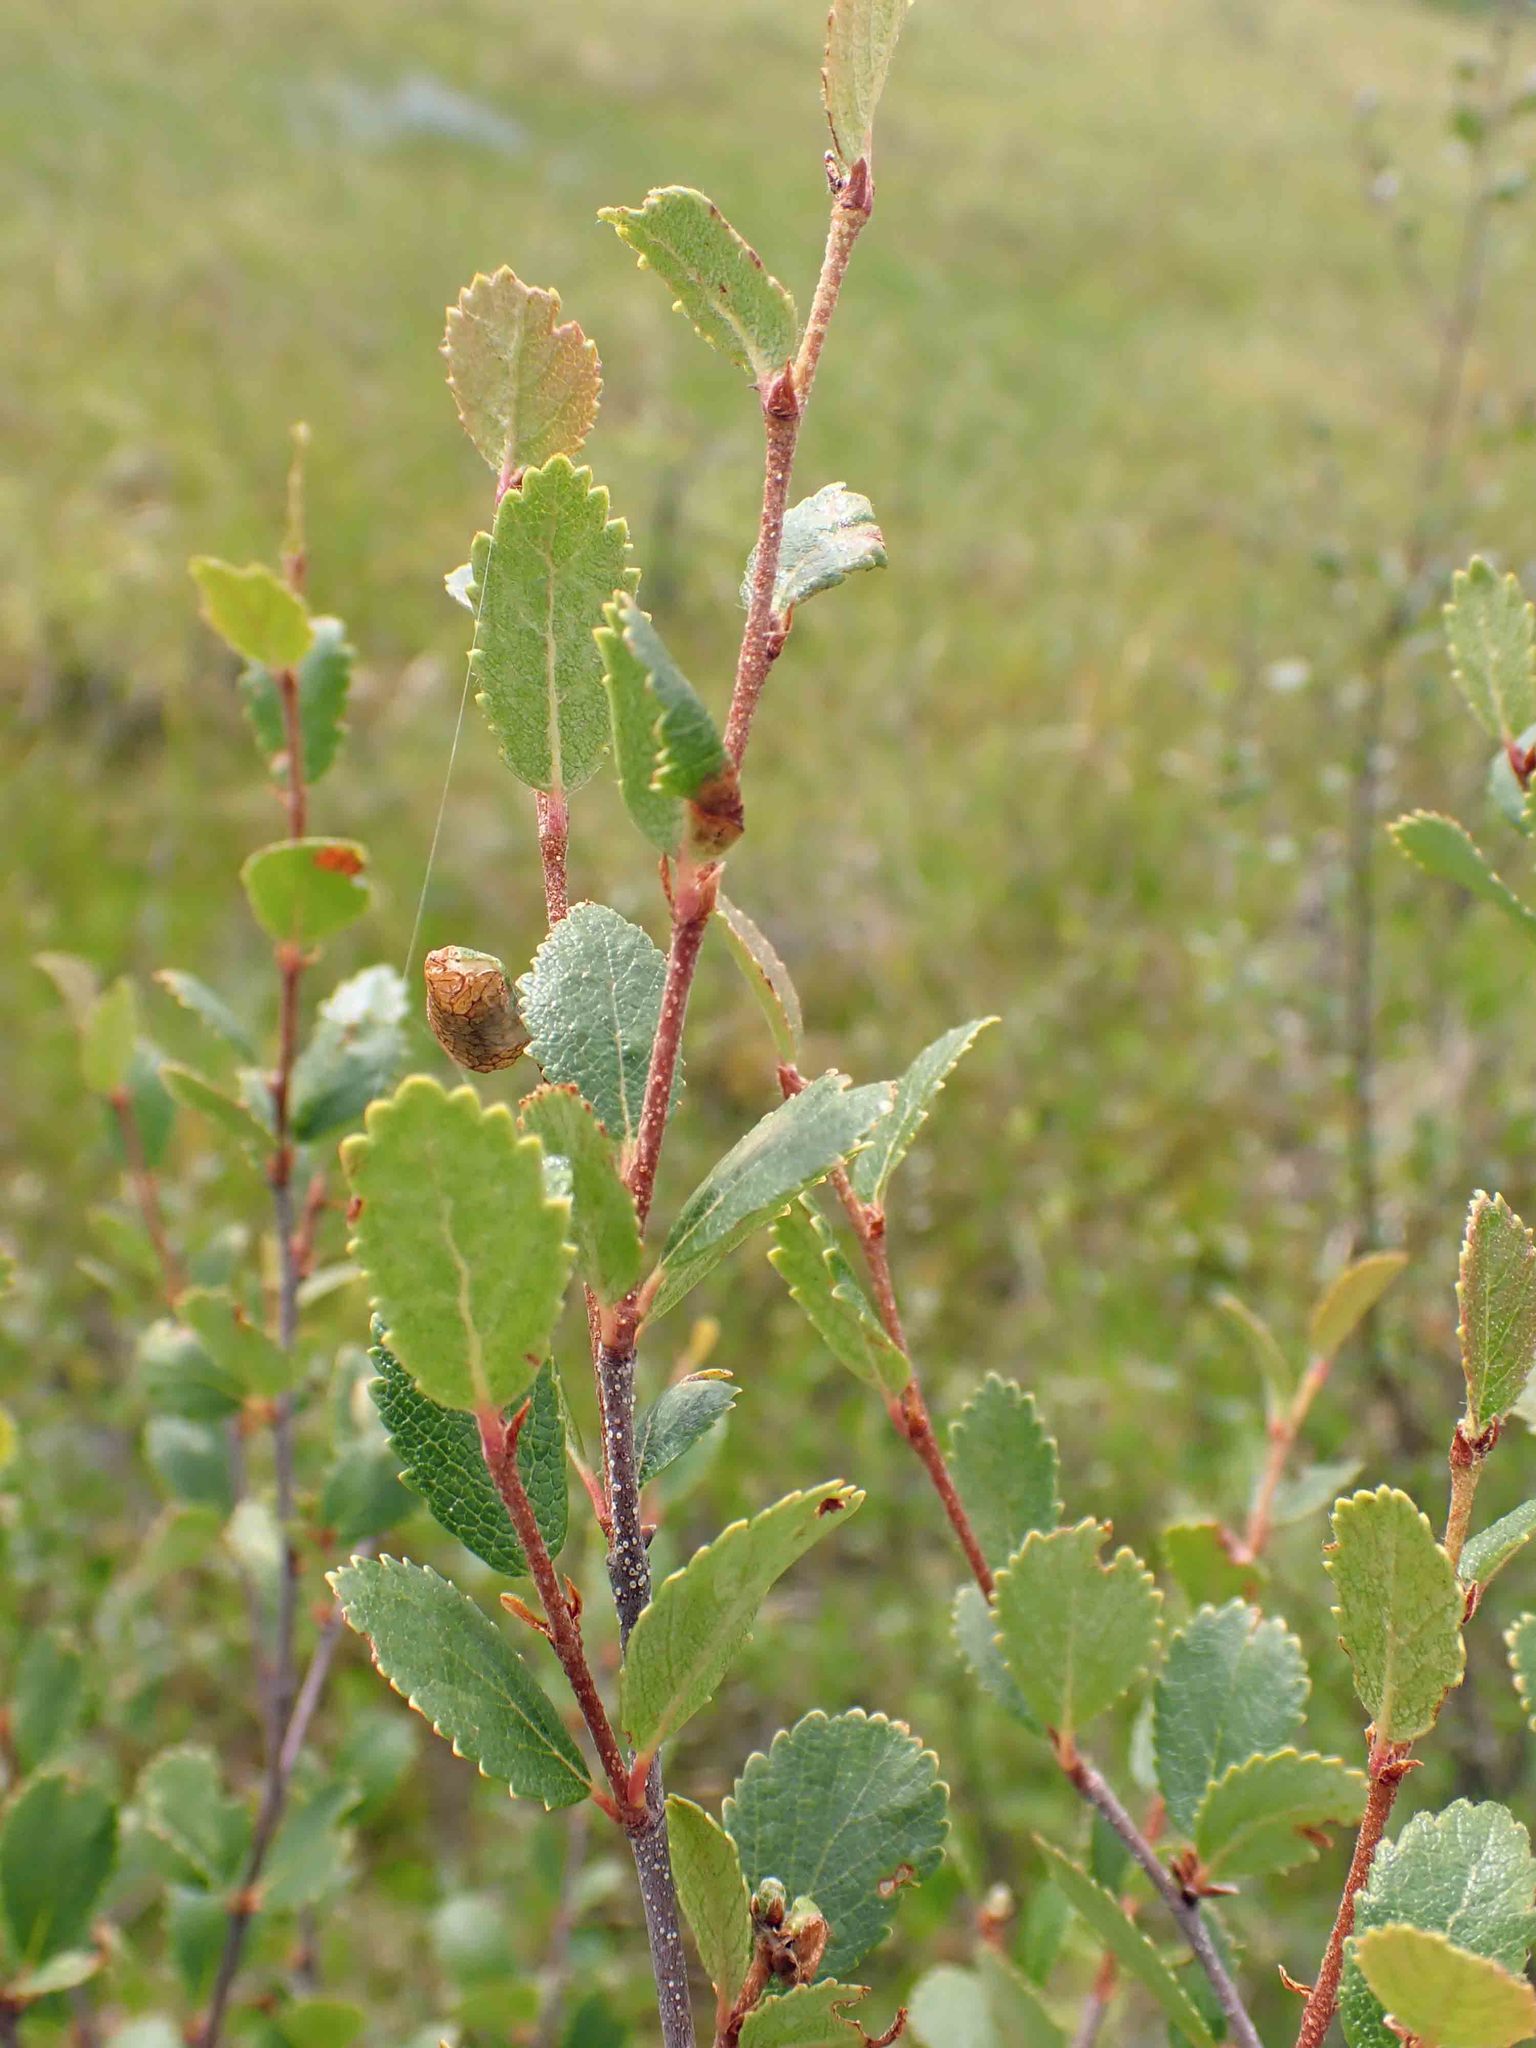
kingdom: Plantae
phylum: Tracheophyta
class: Magnoliopsida
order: Fagales
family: Betulaceae
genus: Betula
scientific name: Betula pumila
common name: Bog birch
